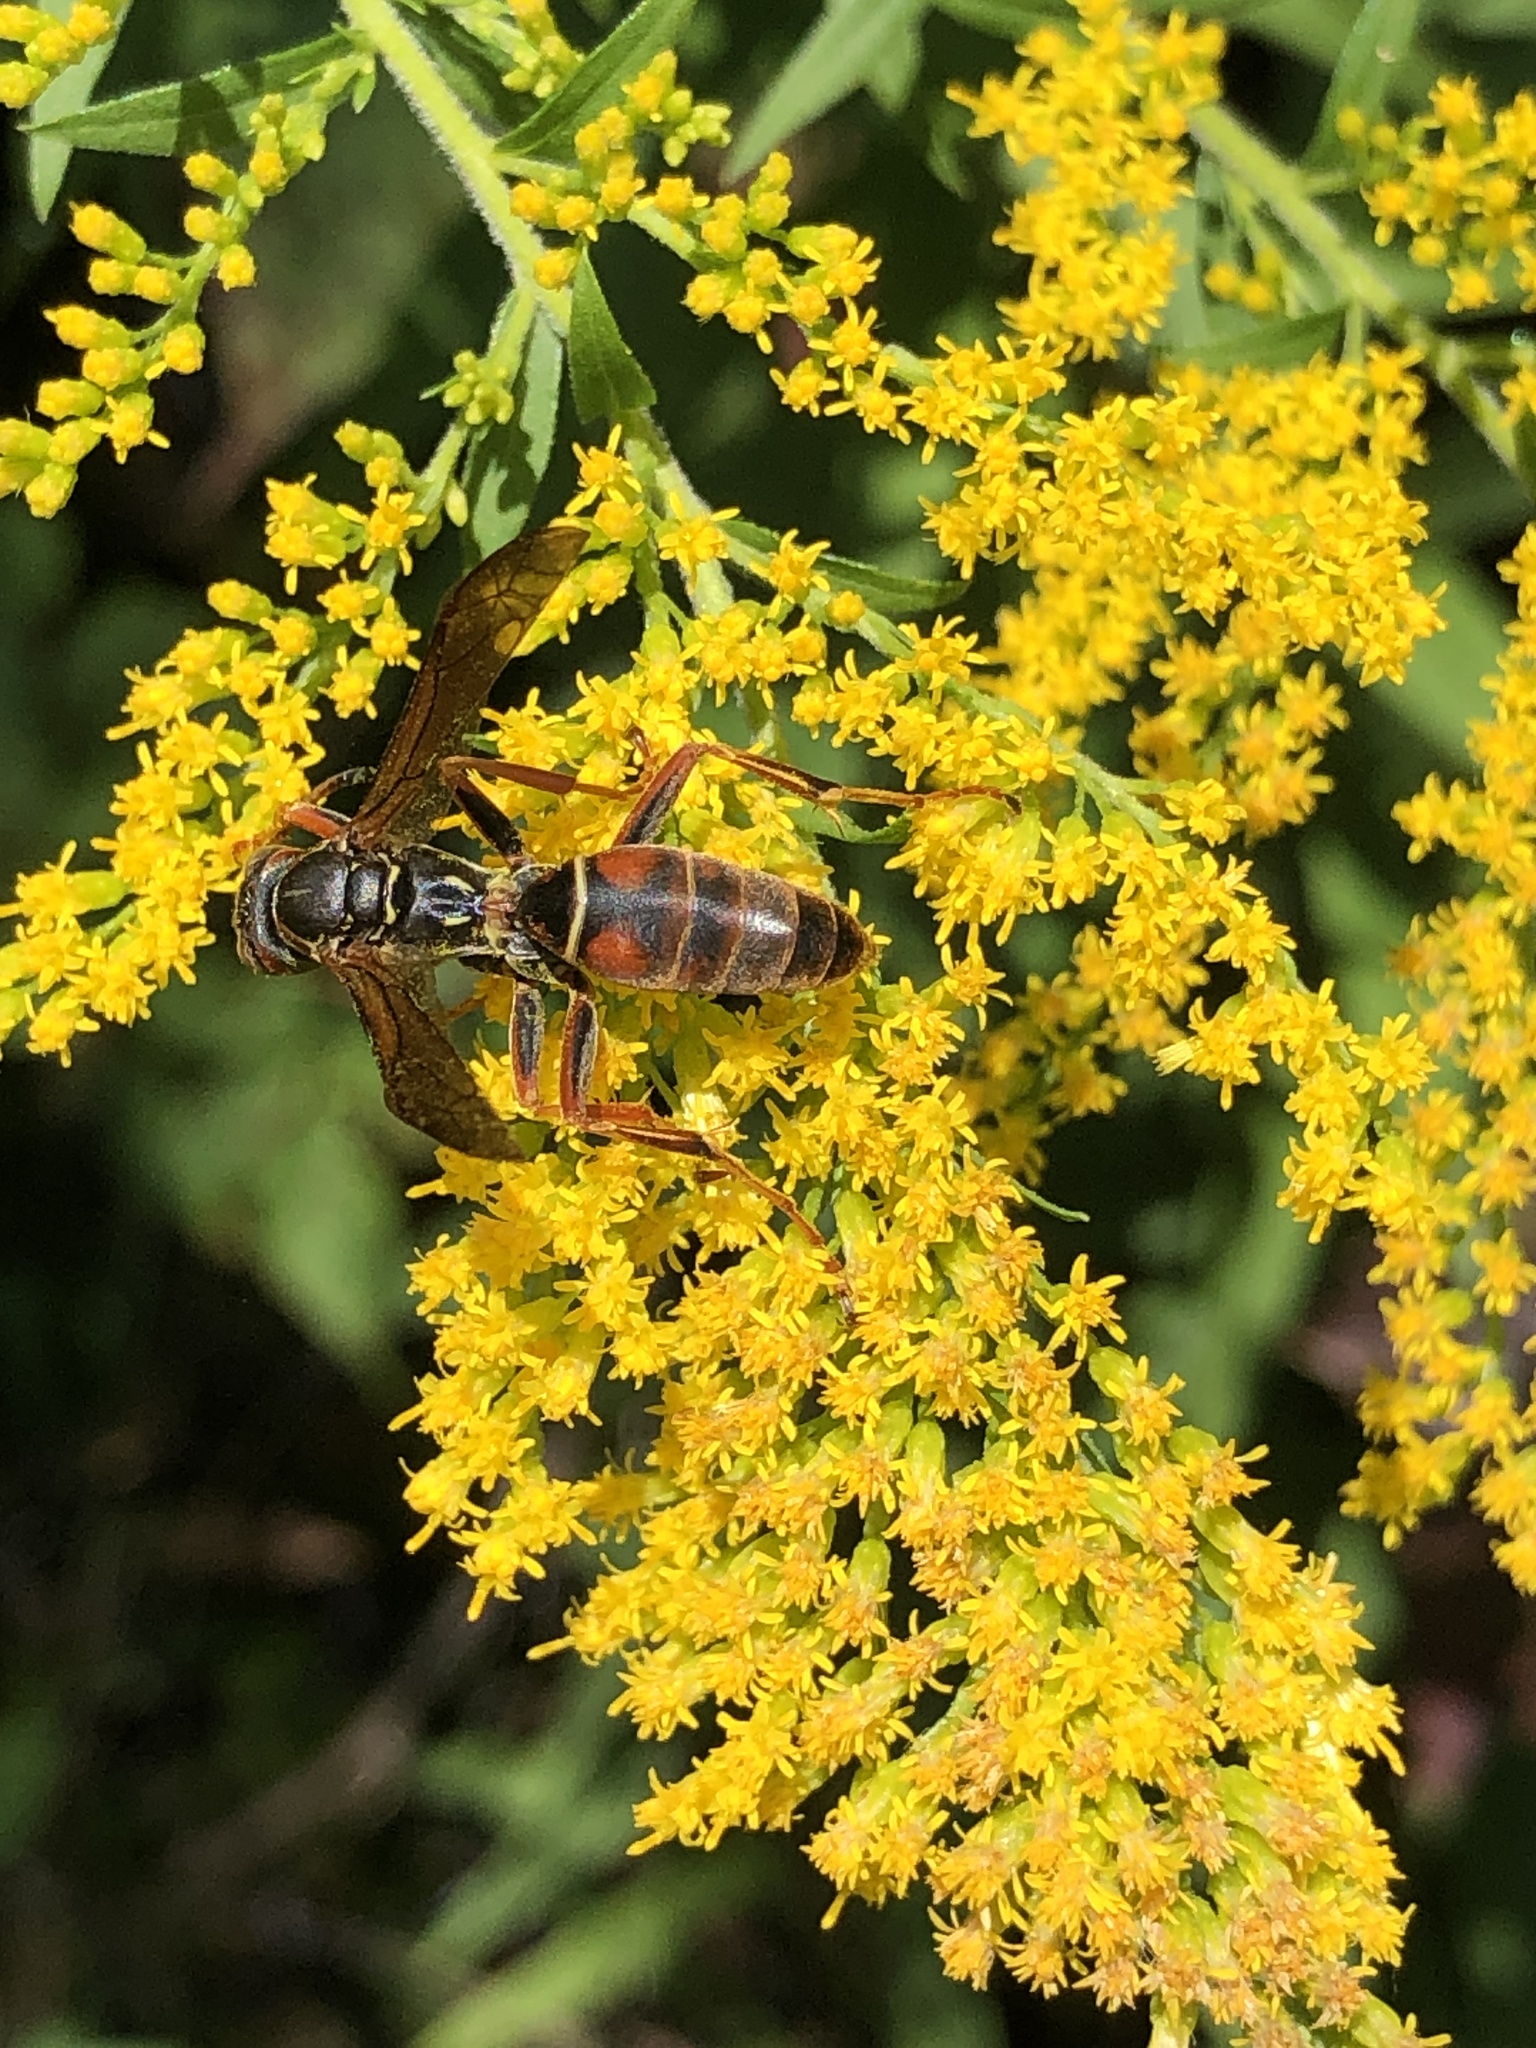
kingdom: Animalia
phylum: Arthropoda
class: Insecta
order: Hymenoptera
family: Eumenidae
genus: Polistes
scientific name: Polistes fuscatus
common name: Dark paper wasp
